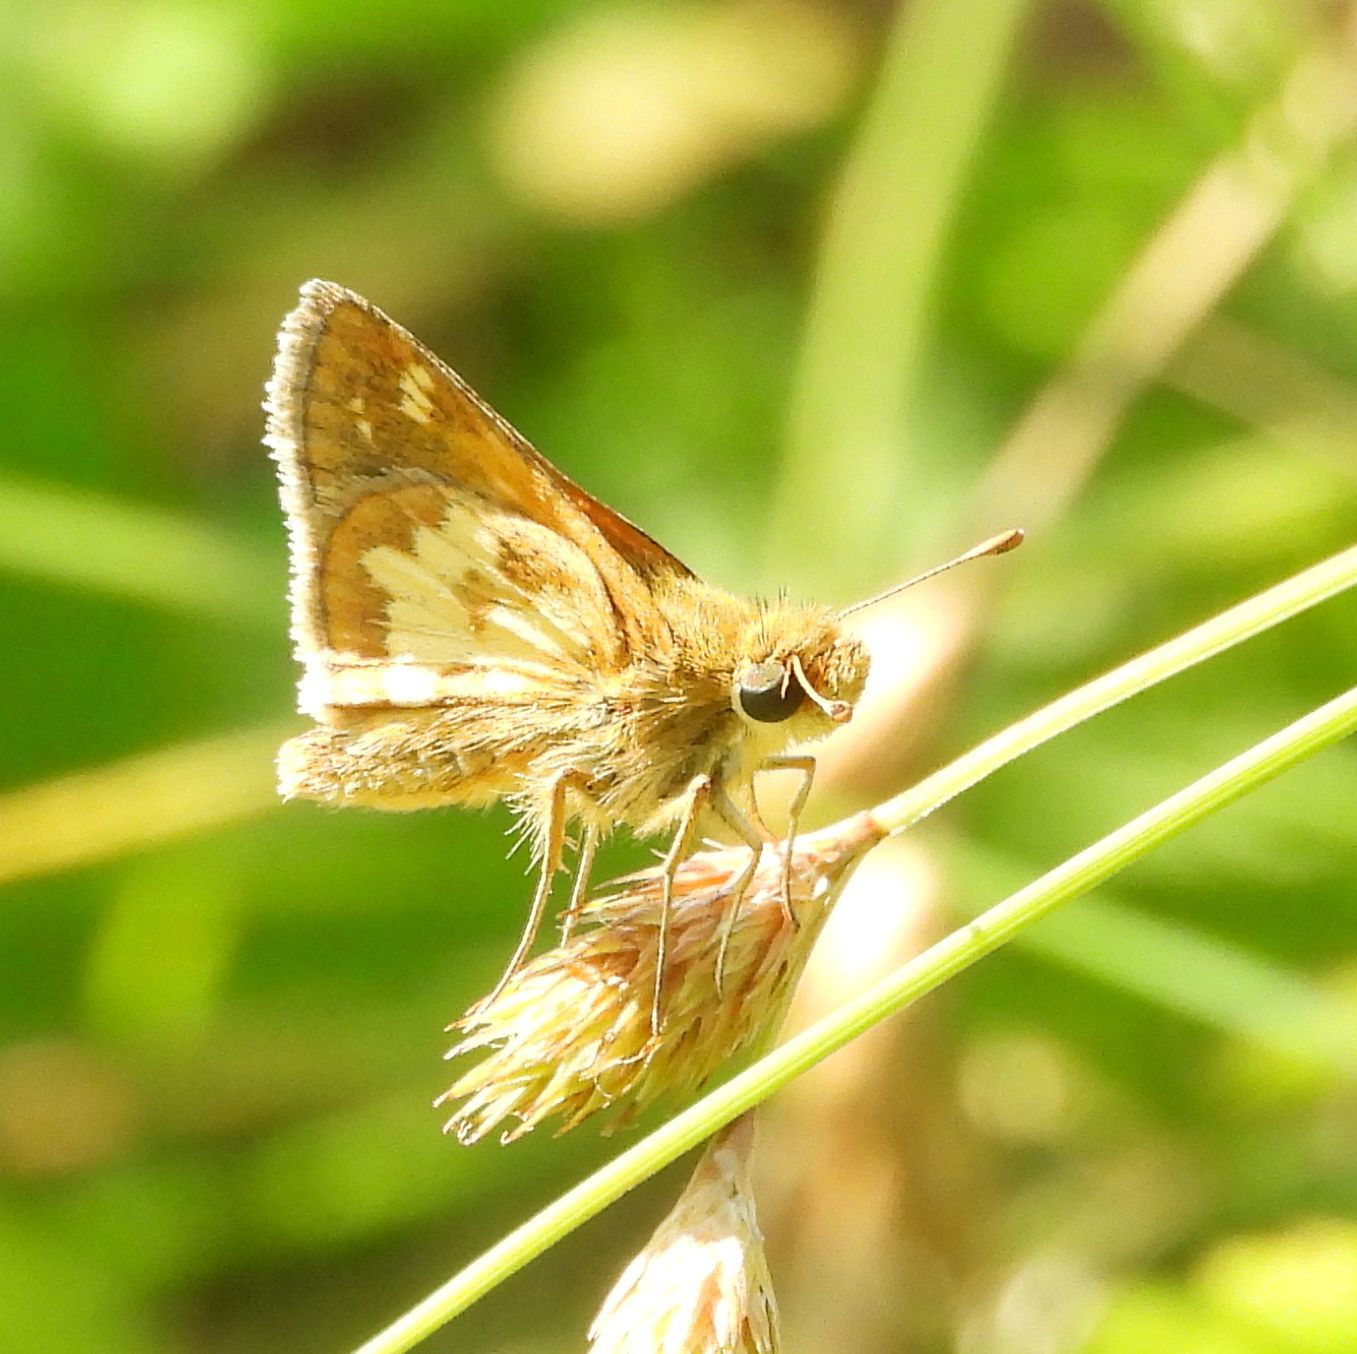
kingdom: Animalia
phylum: Arthropoda
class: Insecta
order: Lepidoptera
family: Hesperiidae
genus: Polites
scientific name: Polites coras
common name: Peck's skipper
